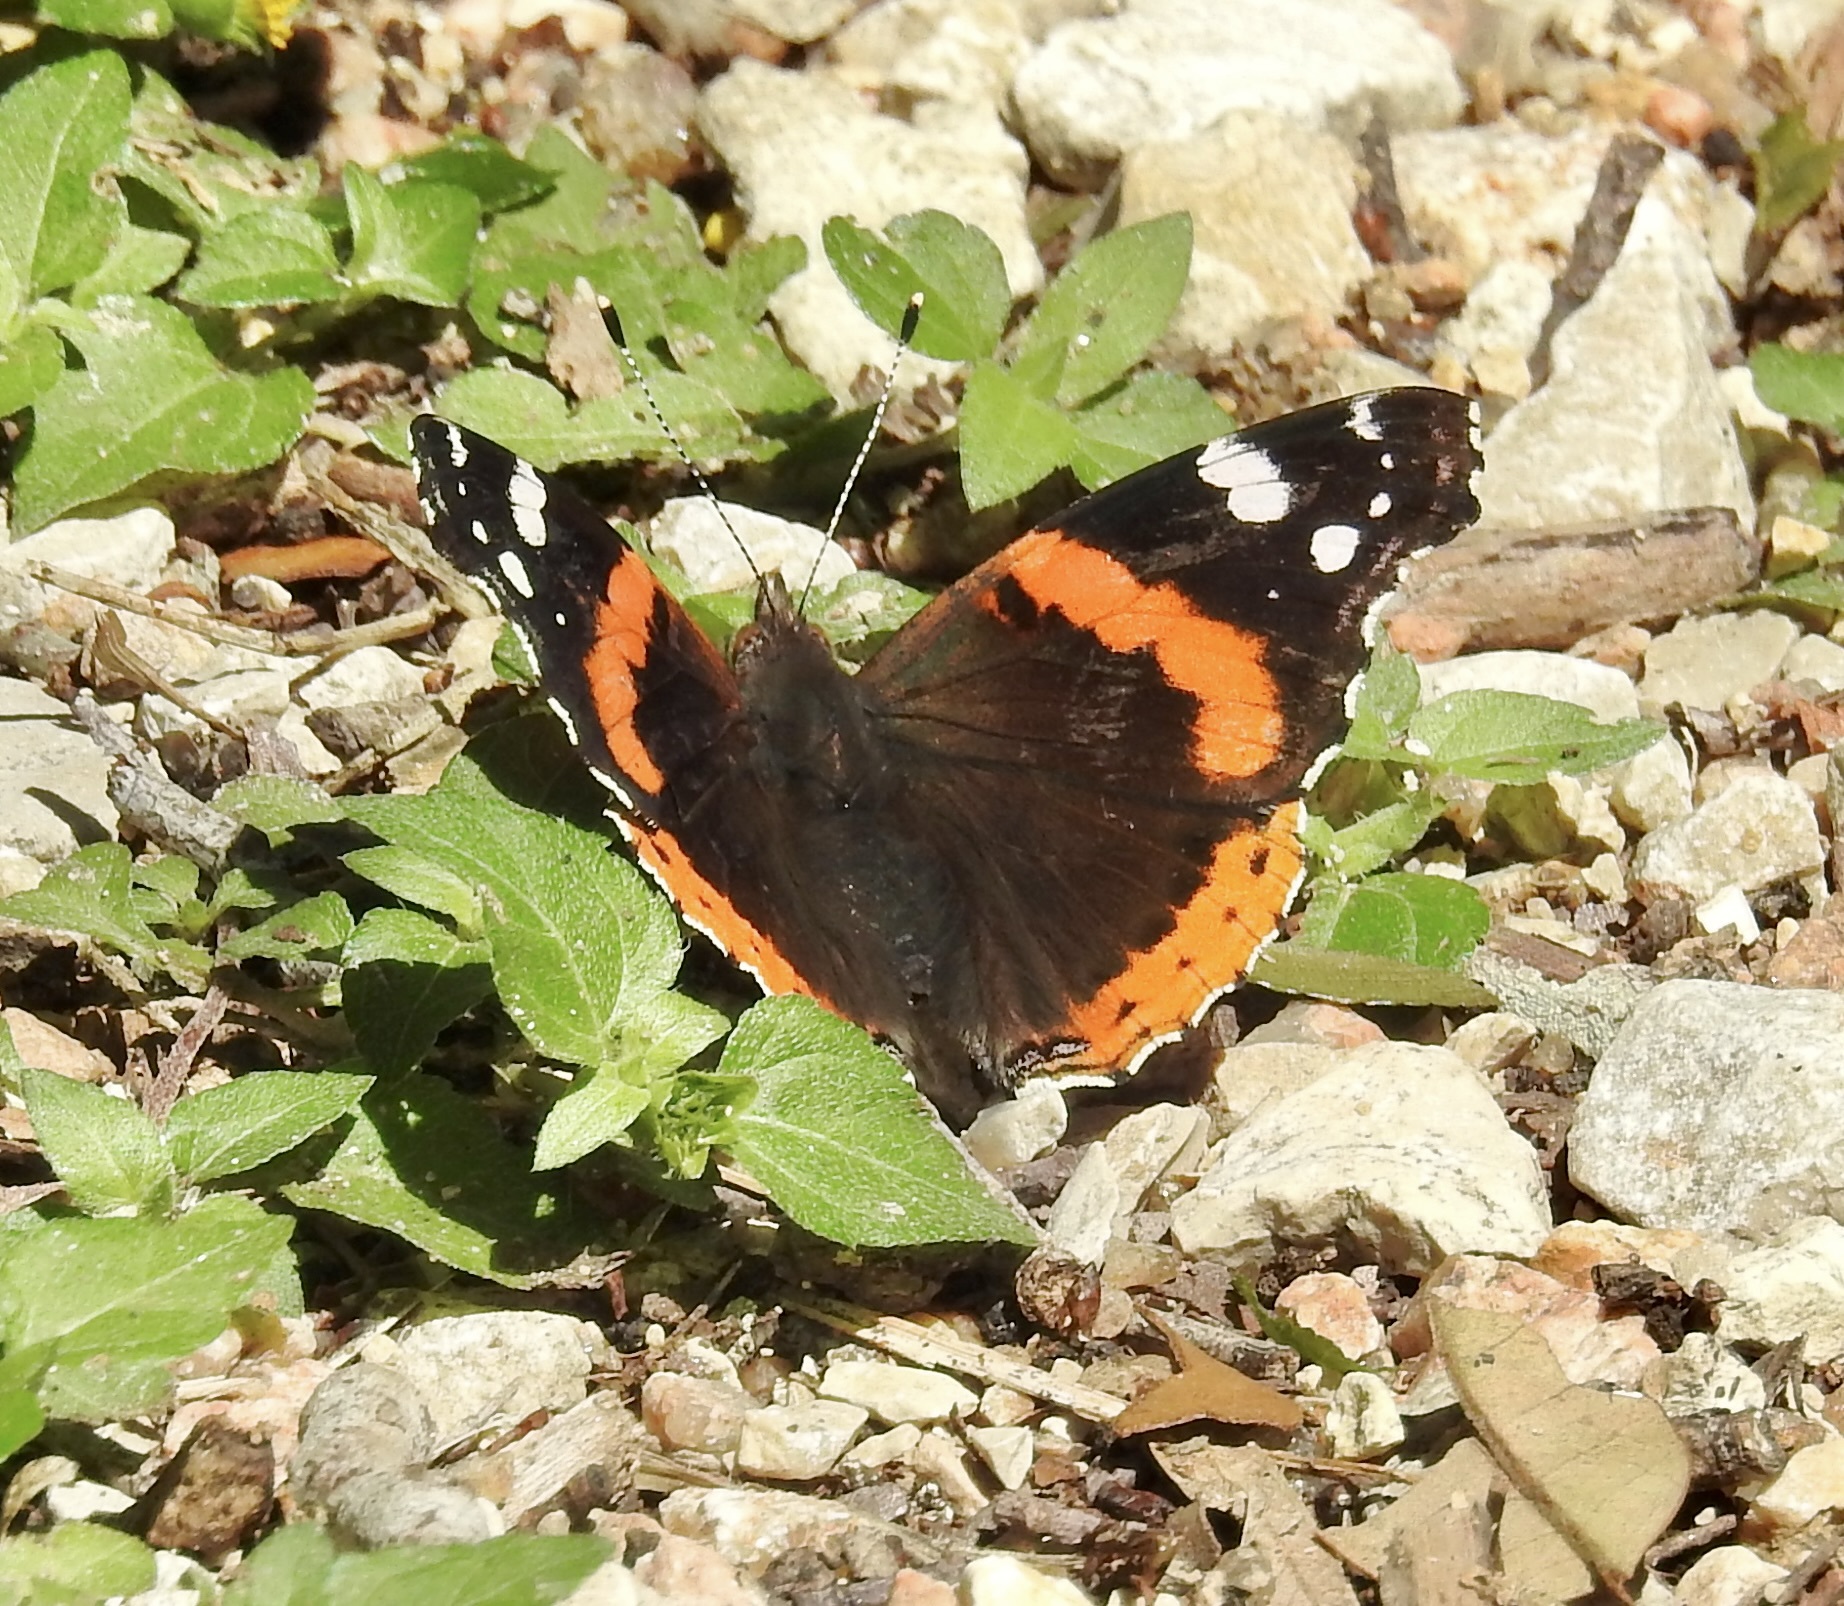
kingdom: Animalia
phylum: Arthropoda
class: Insecta
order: Lepidoptera
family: Nymphalidae
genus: Vanessa
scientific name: Vanessa atalanta
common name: Red admiral
